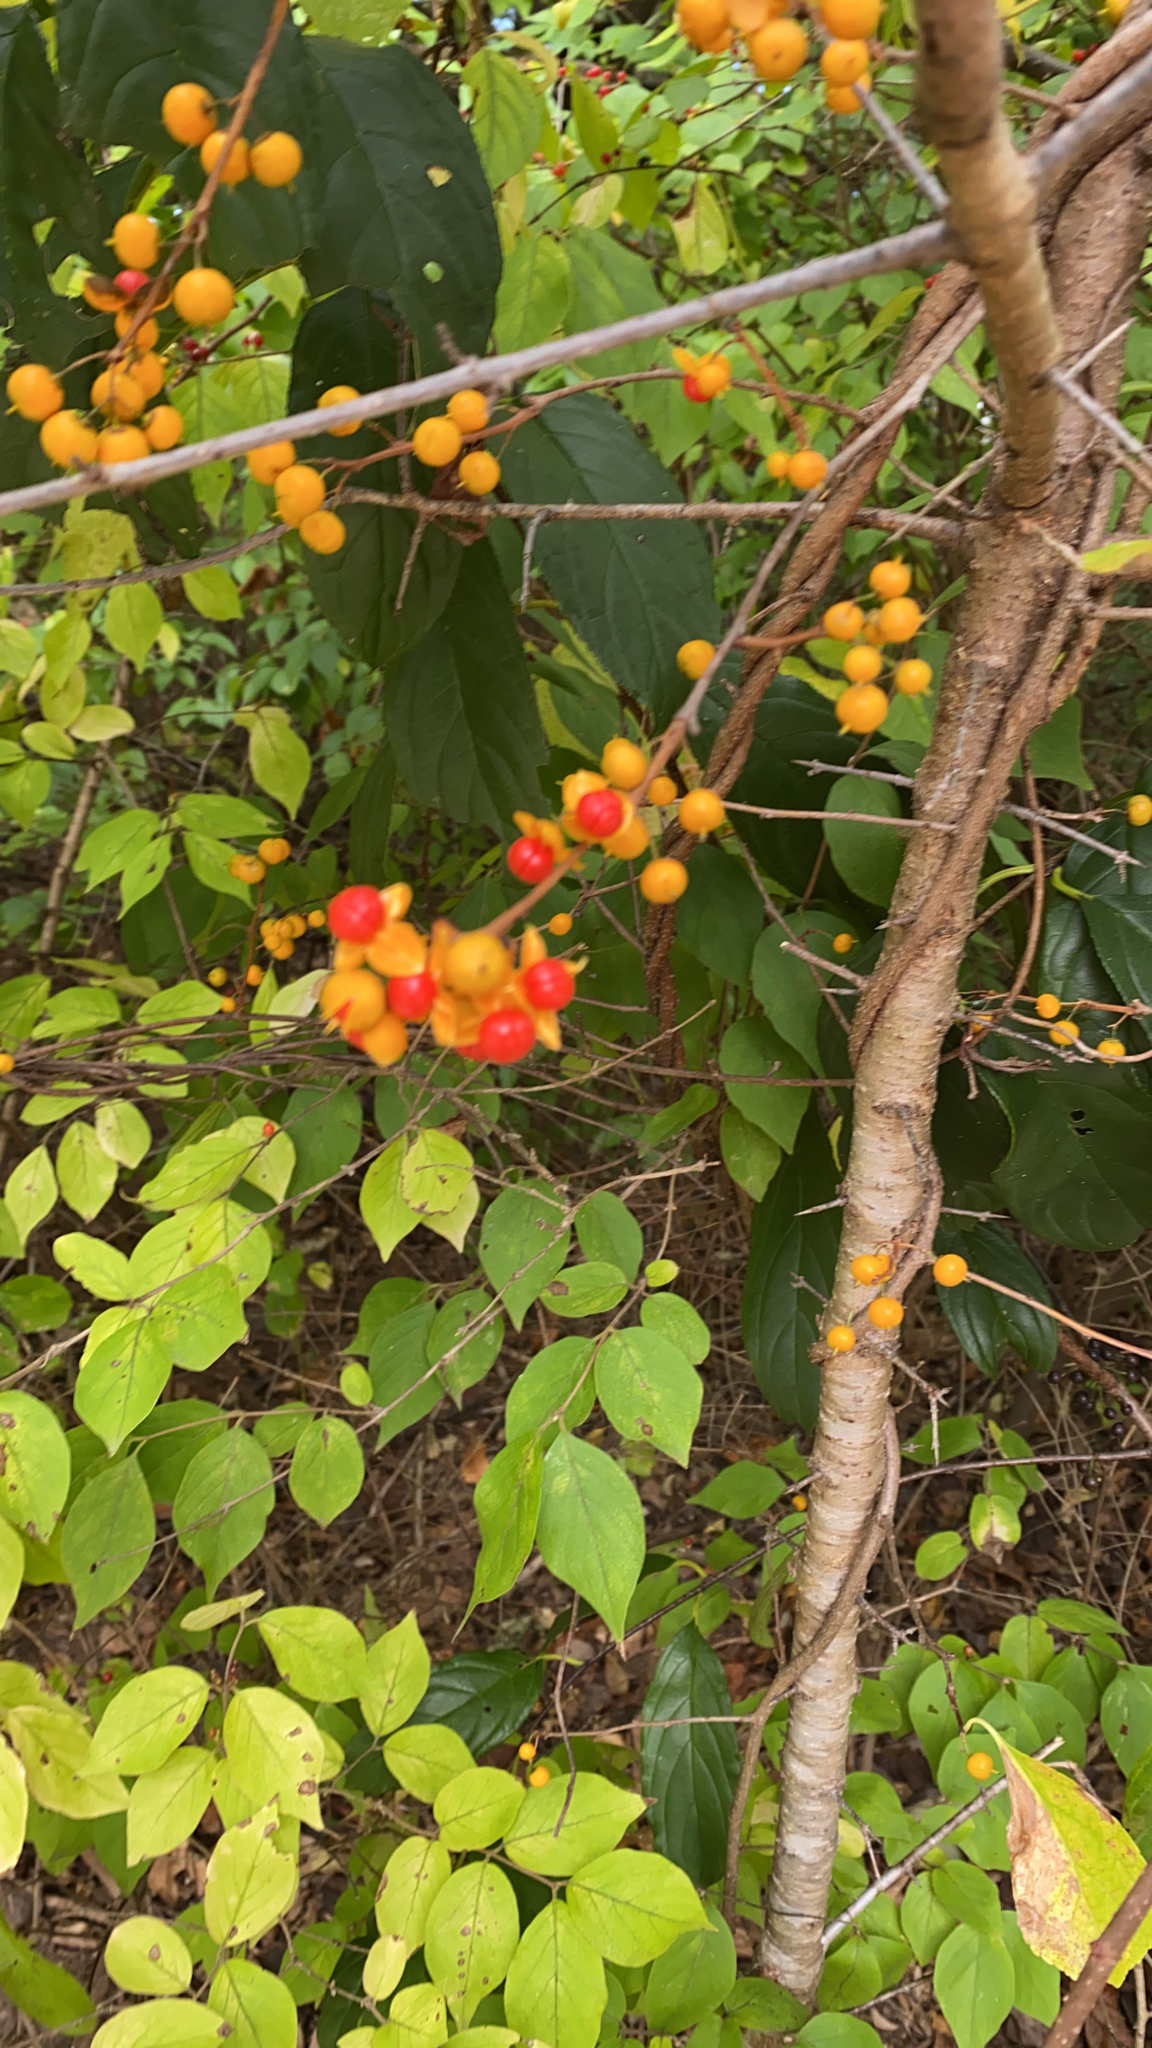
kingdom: Plantae
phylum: Tracheophyta
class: Magnoliopsida
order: Celastrales
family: Celastraceae
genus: Celastrus
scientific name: Celastrus orbiculatus
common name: Oriental bittersweet
